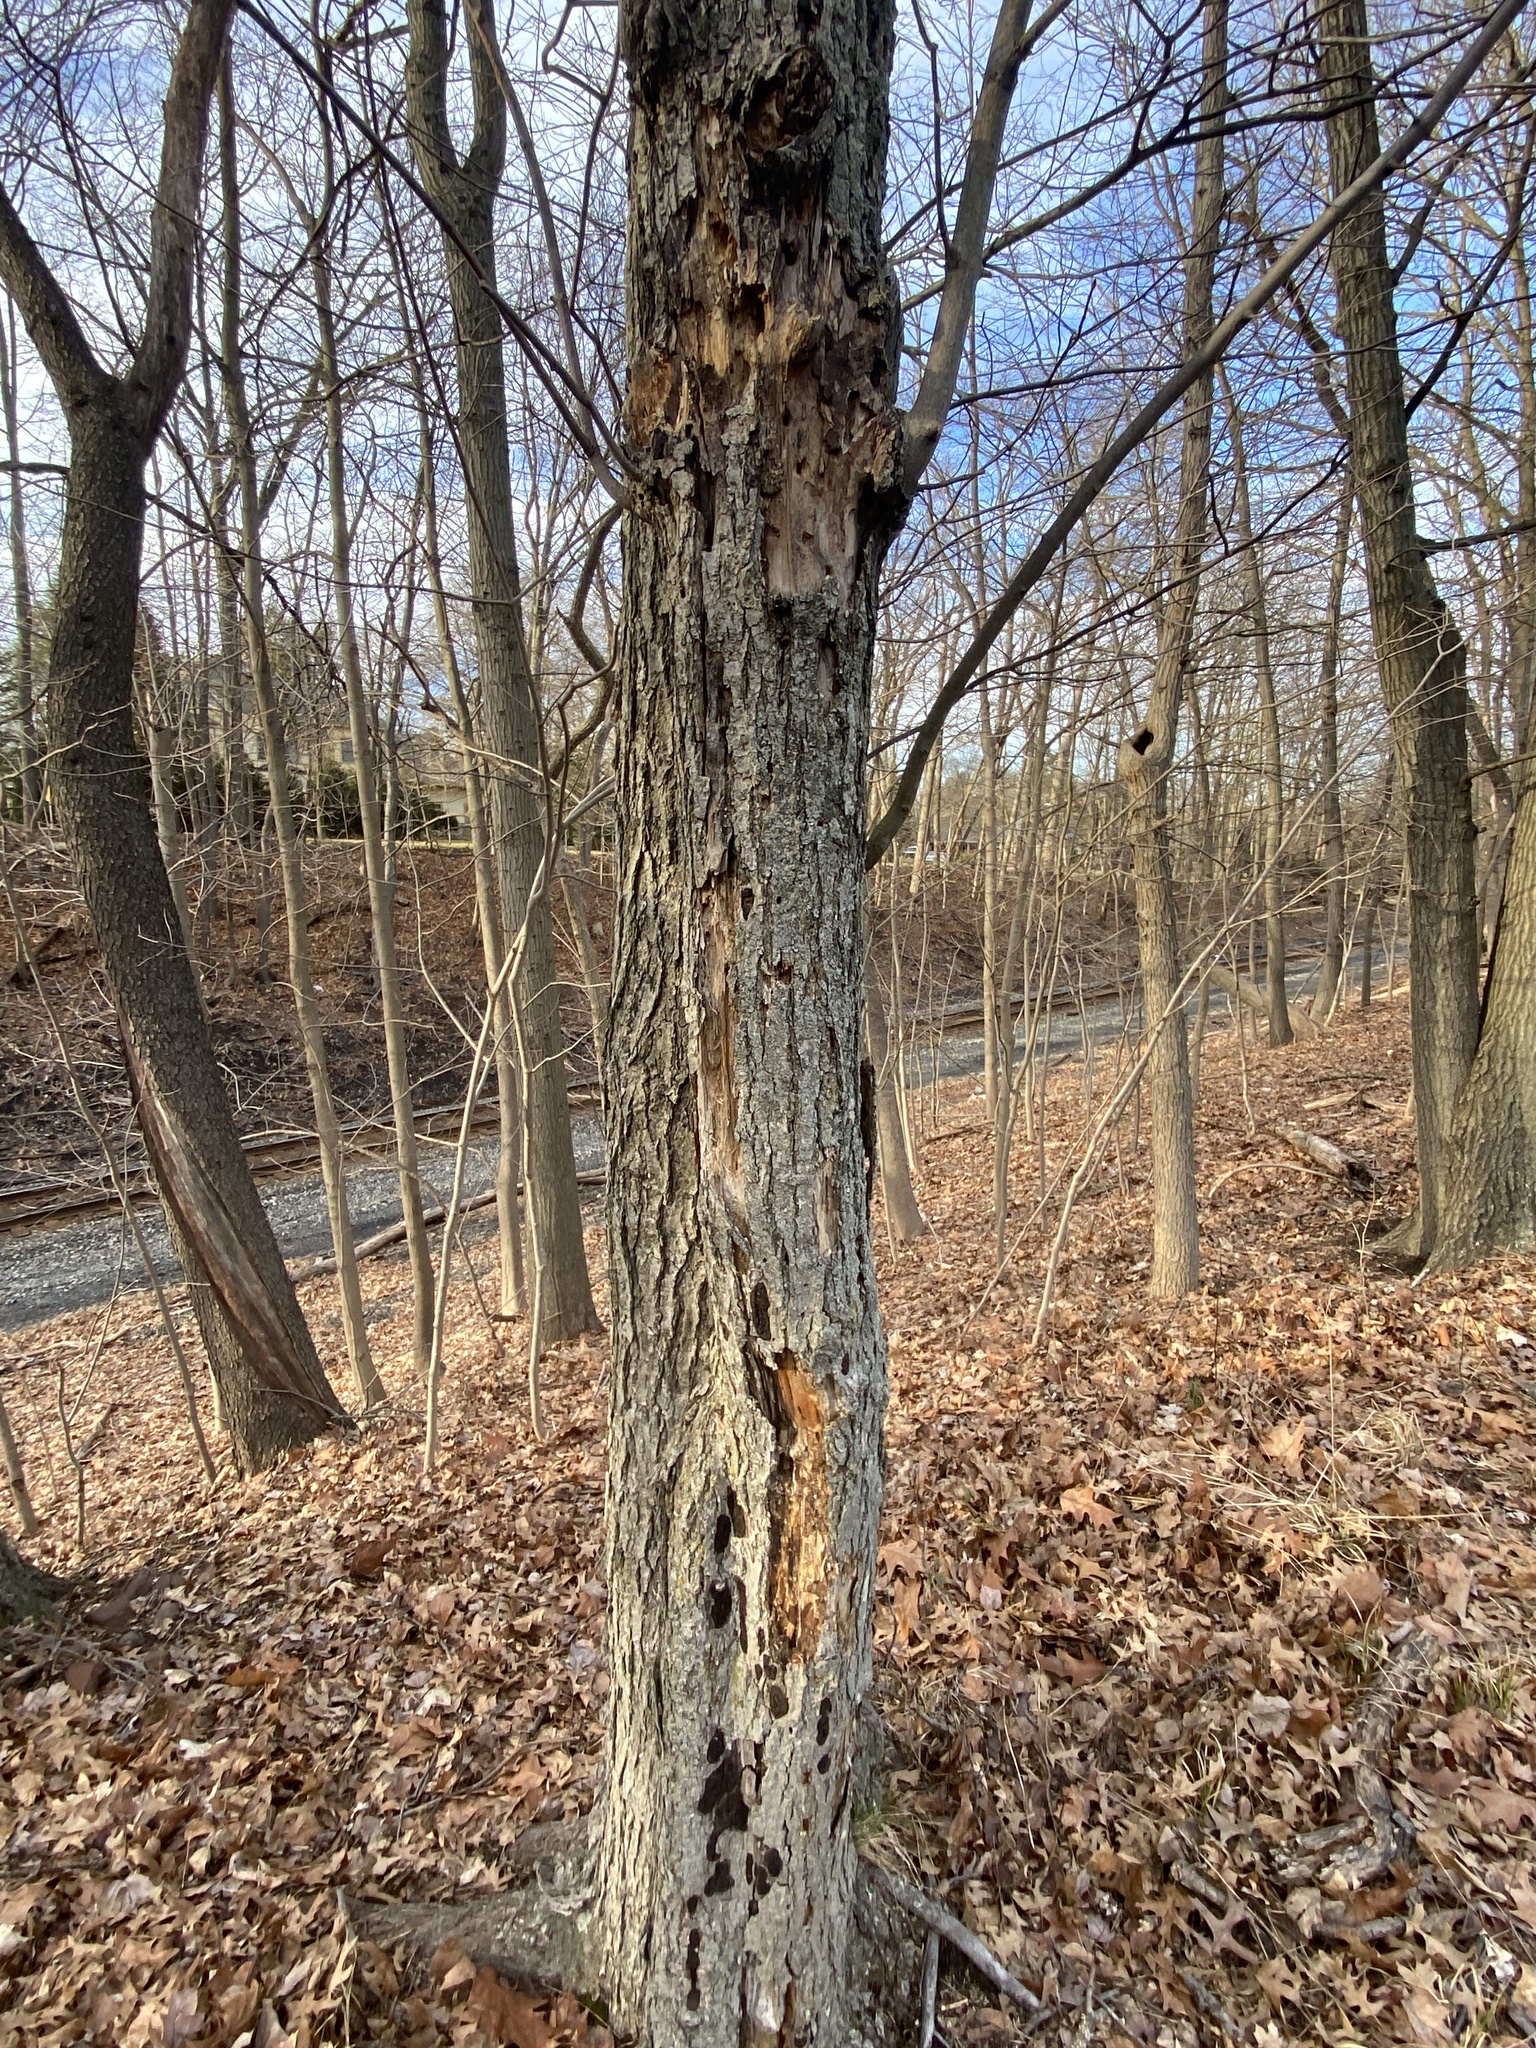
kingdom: Animalia
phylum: Chordata
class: Aves
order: Piciformes
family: Picidae
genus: Dryocopus
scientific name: Dryocopus pileatus
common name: Pileated woodpecker
